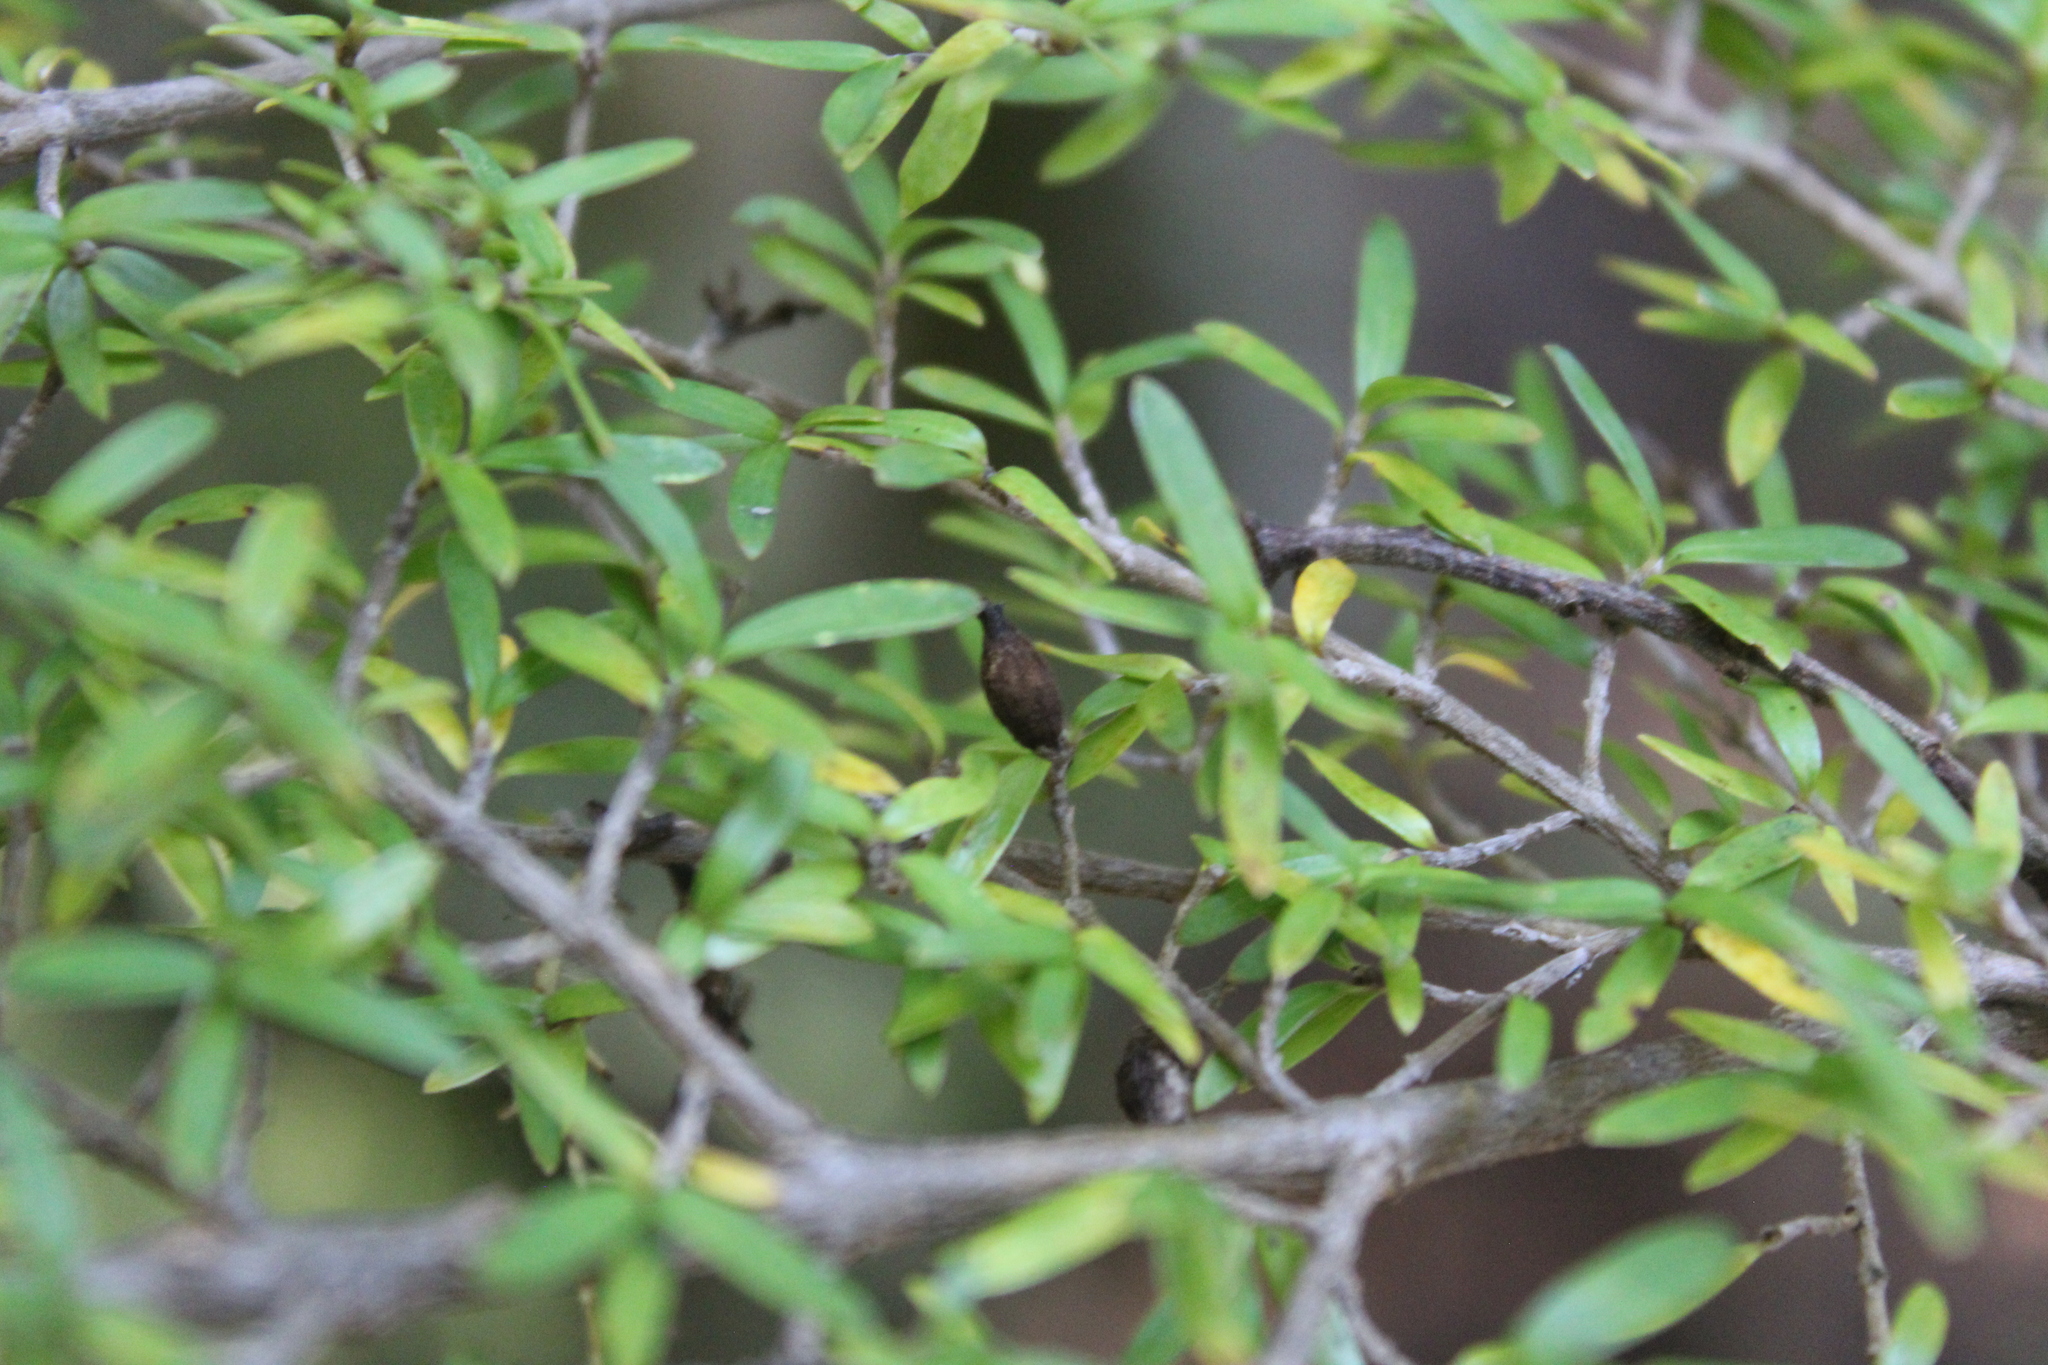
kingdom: Plantae
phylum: Tracheophyta
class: Magnoliopsida
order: Gentianales
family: Rubiaceae
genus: Coprosma
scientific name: Coprosma microcarpa
